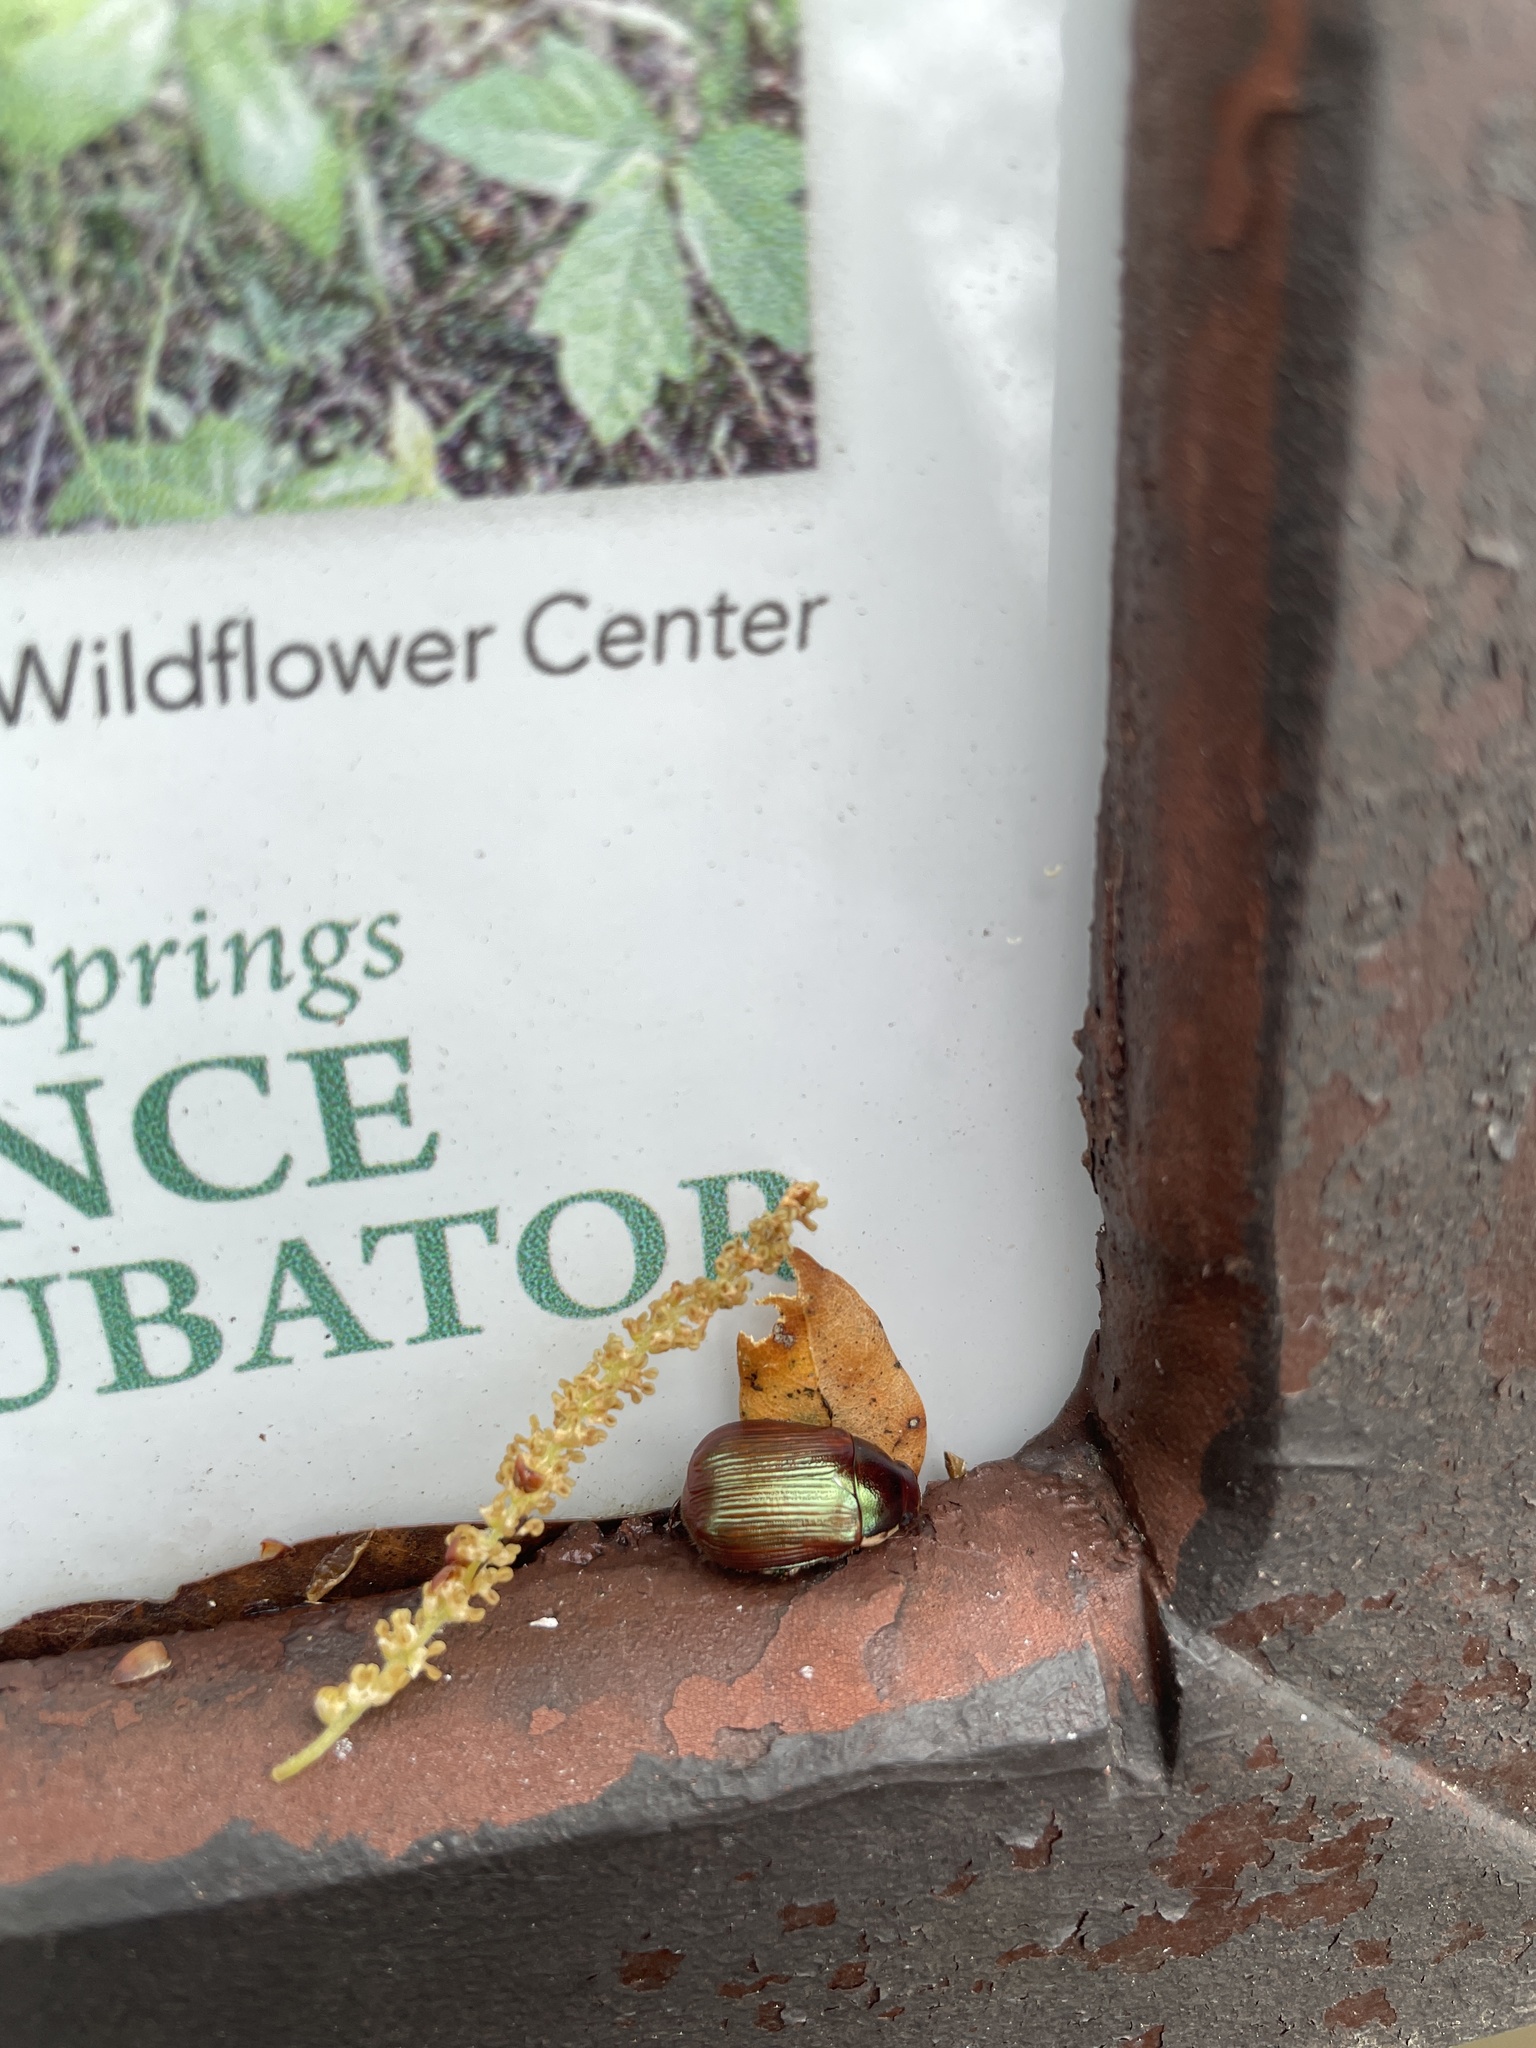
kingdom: Animalia
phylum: Arthropoda
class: Insecta
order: Coleoptera
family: Scarabaeidae
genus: Callistethus
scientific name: Callistethus marginatus
